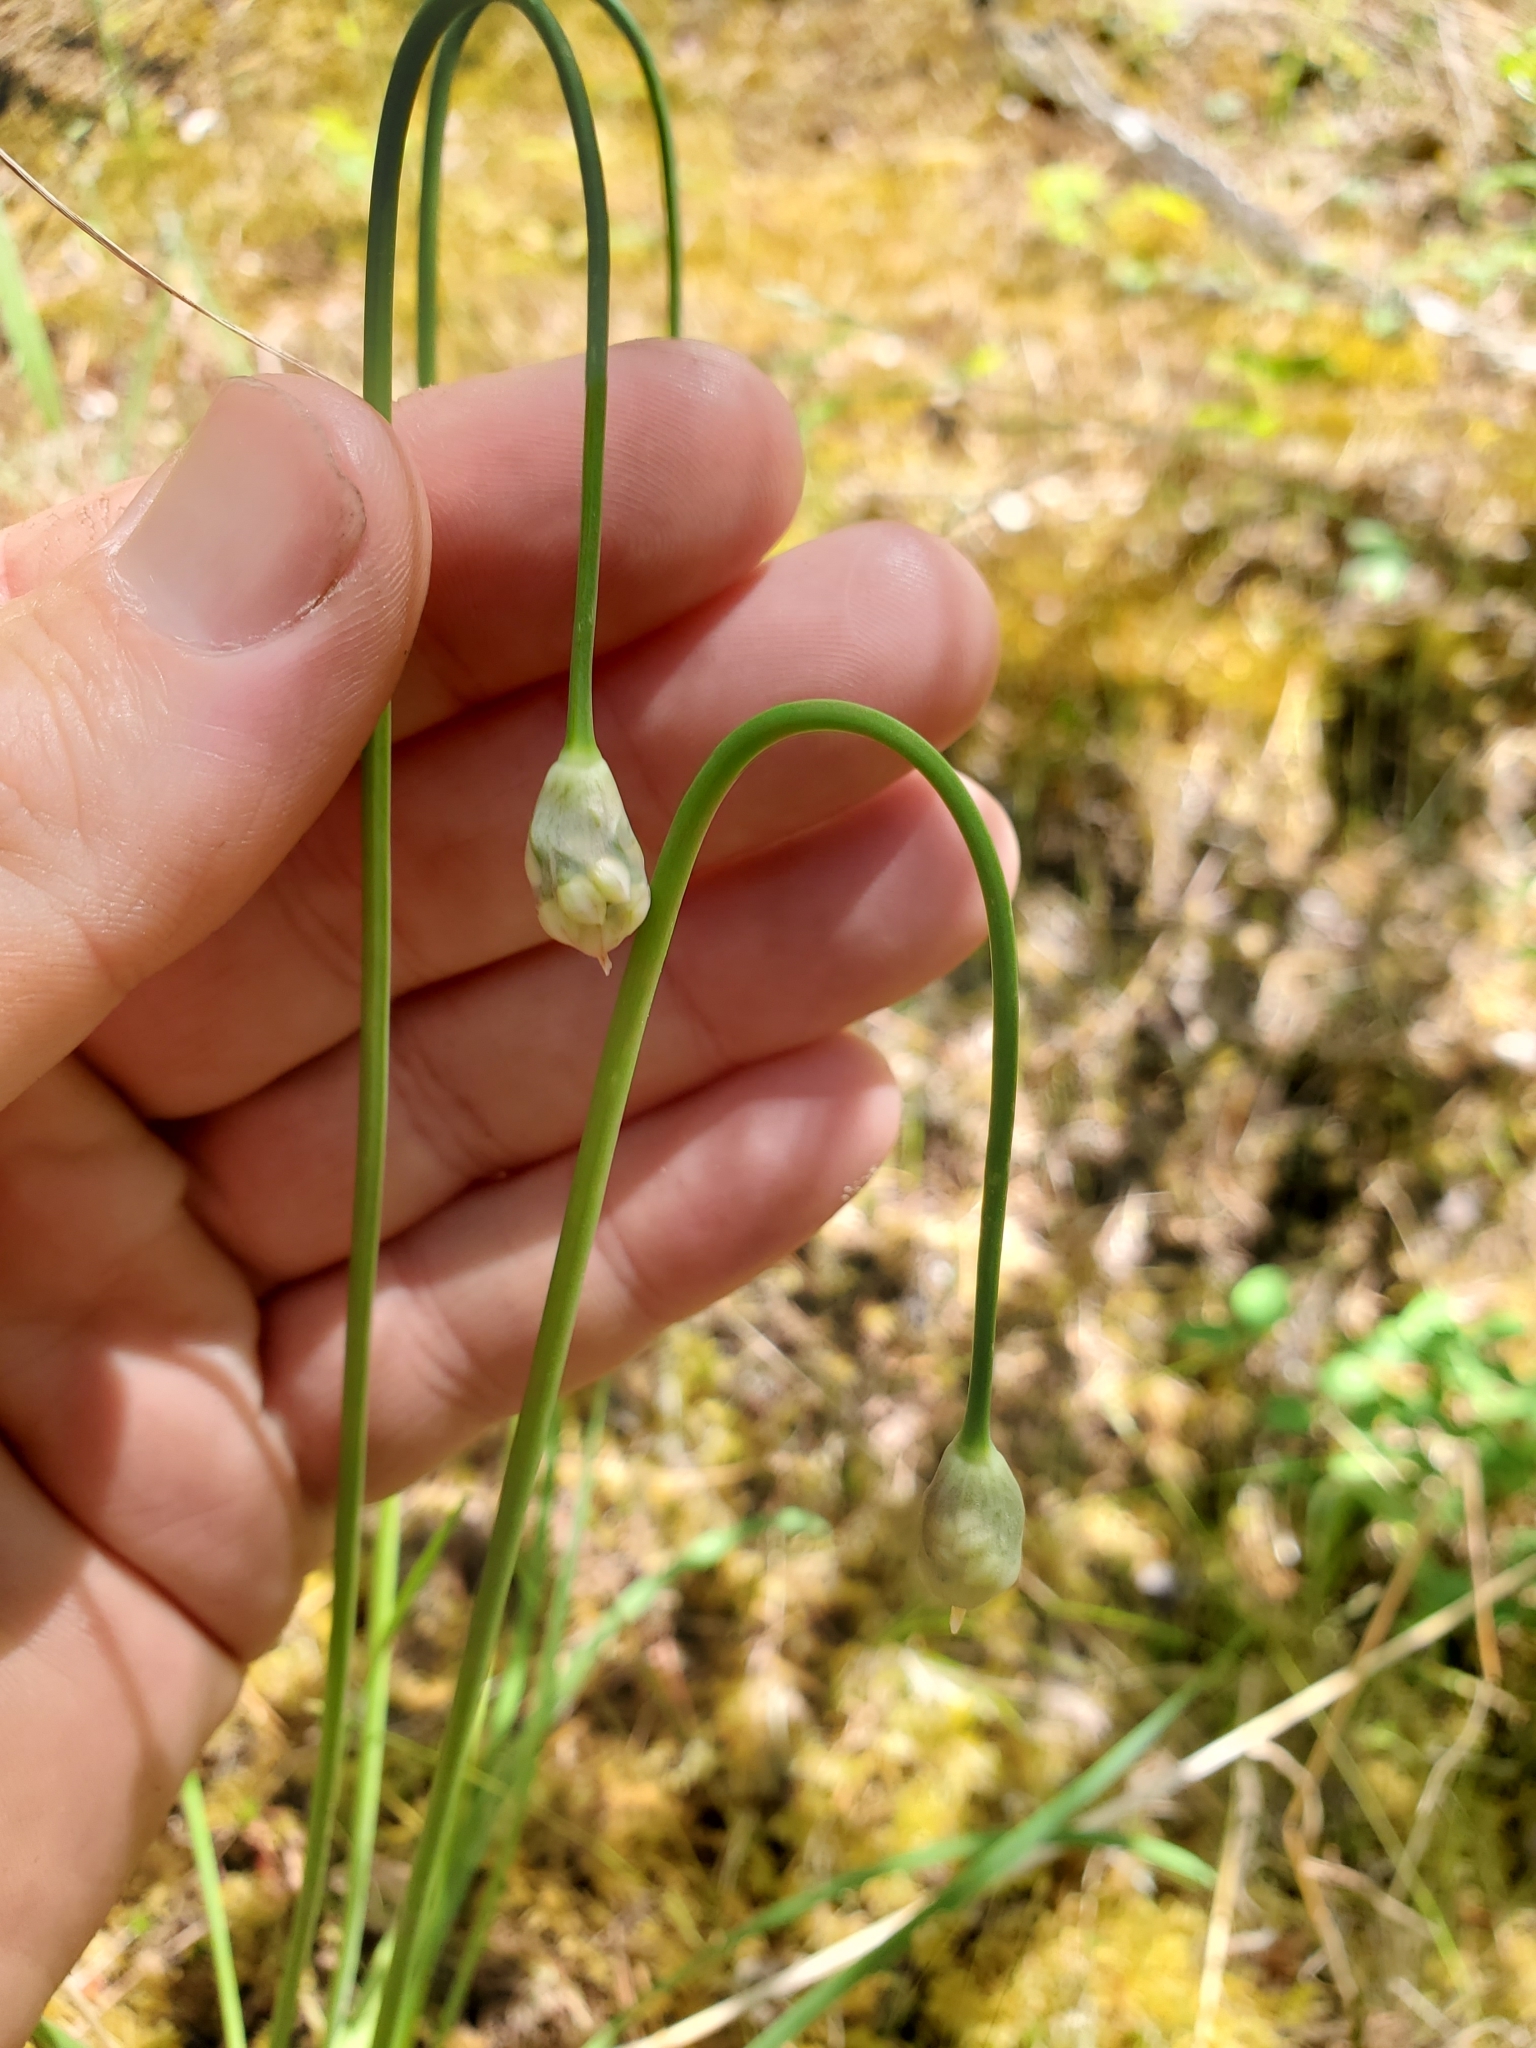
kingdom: Plantae
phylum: Tracheophyta
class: Liliopsida
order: Asparagales
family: Amaryllidaceae
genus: Allium
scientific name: Allium cernuum
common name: Nodding onion
